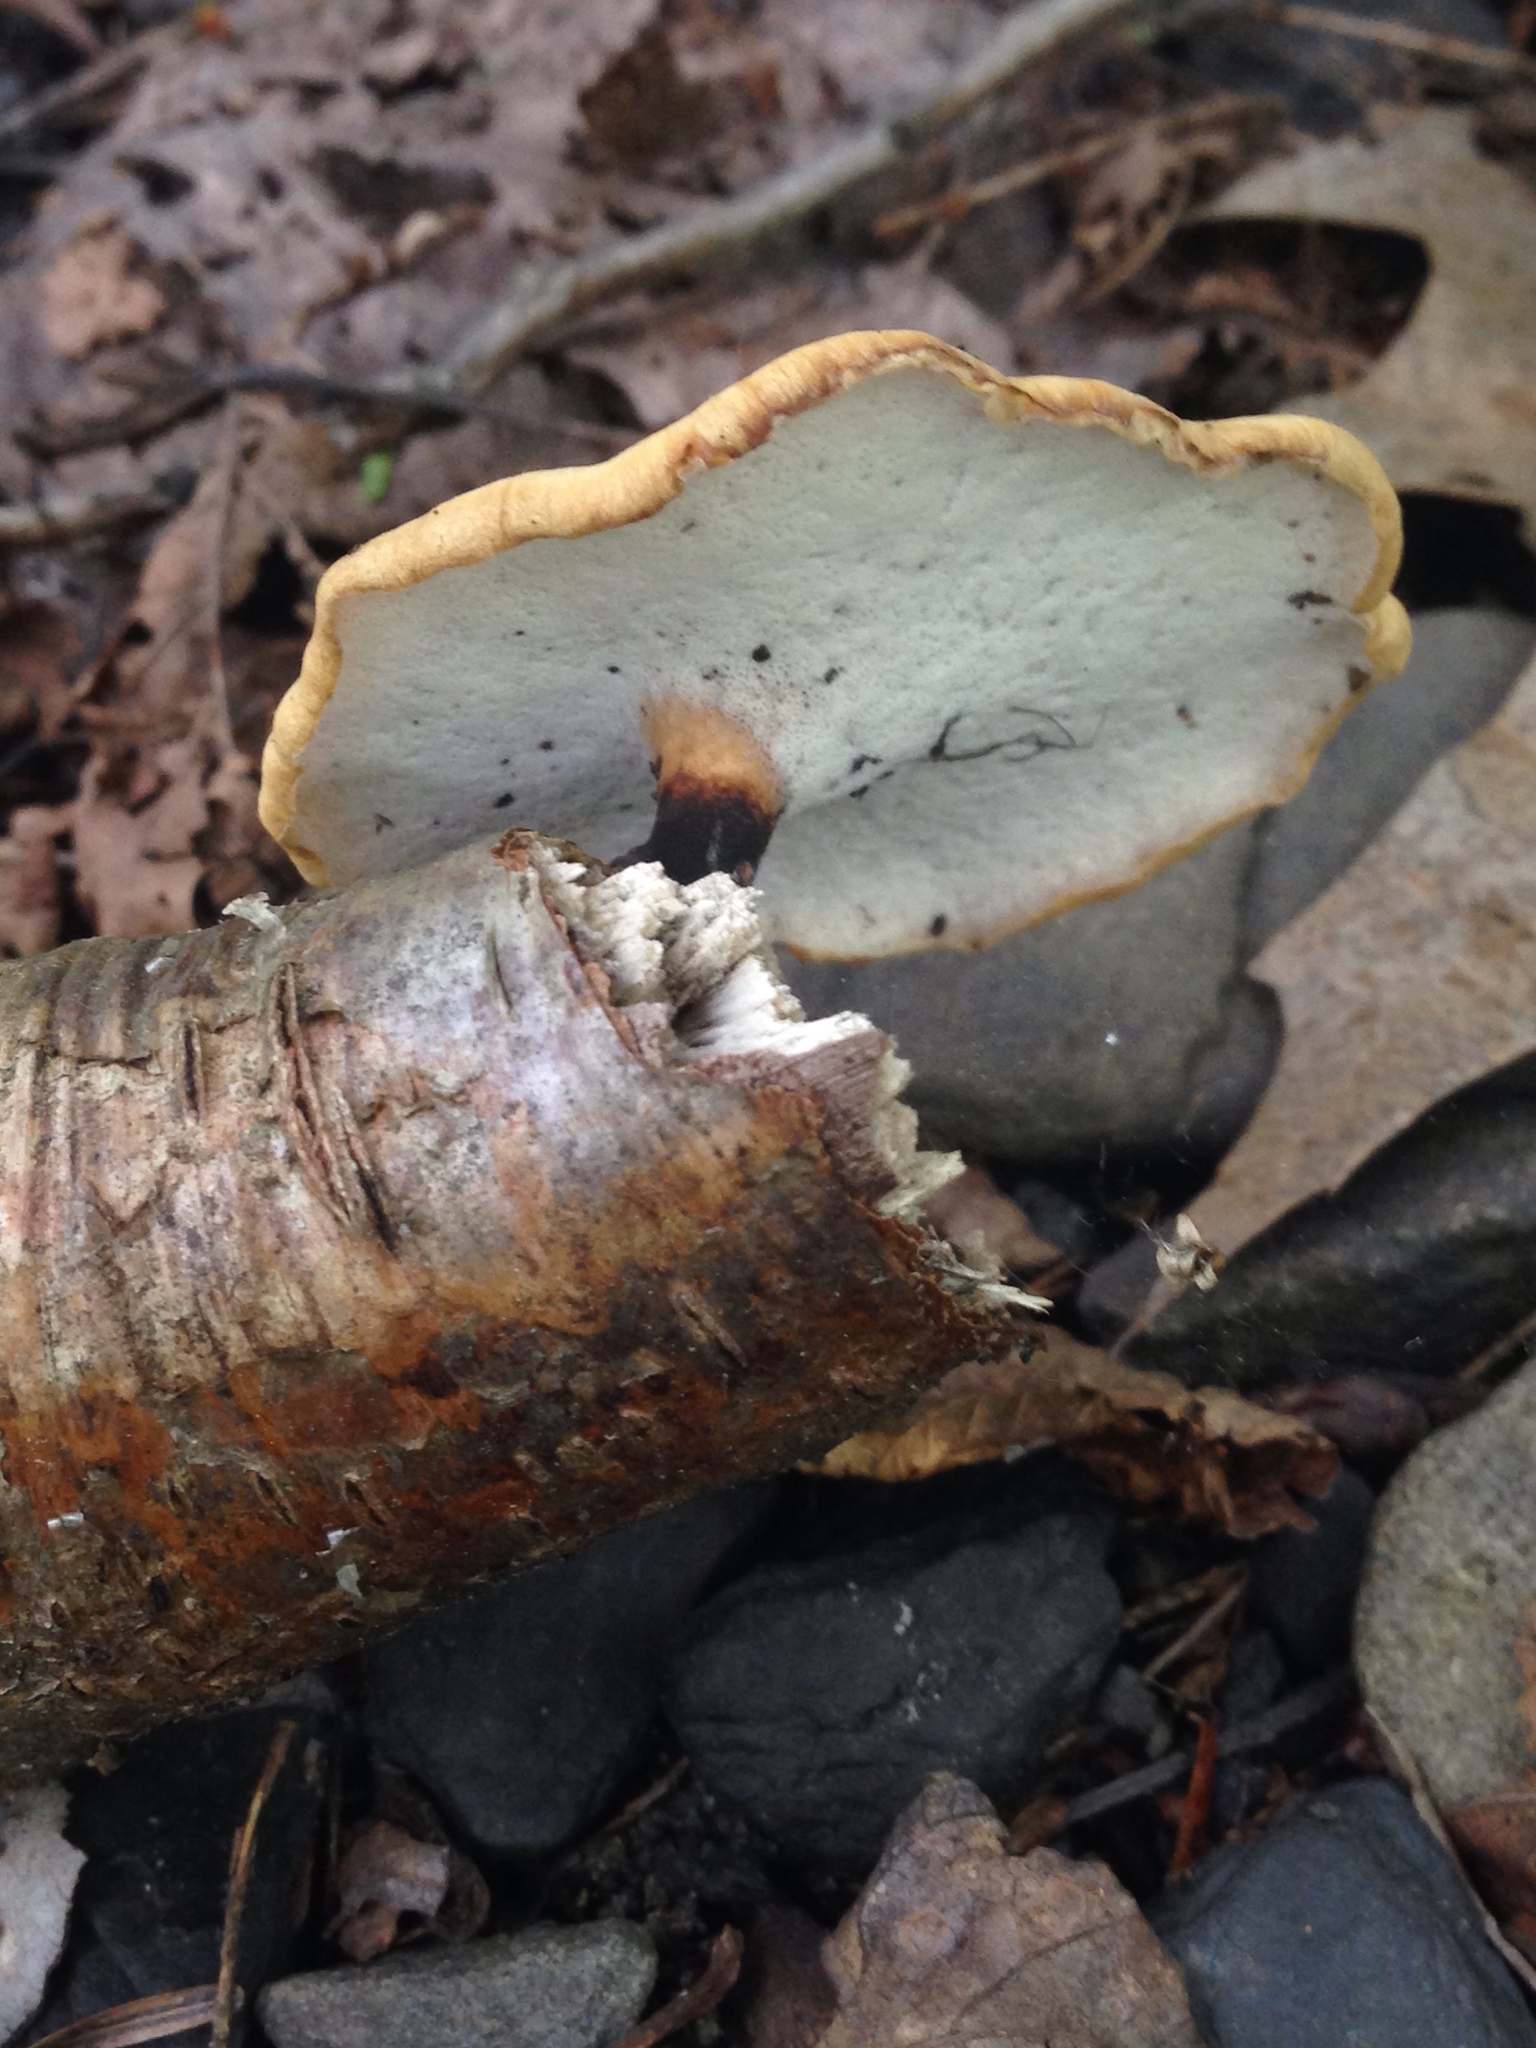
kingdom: Fungi
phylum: Basidiomycota
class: Agaricomycetes
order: Polyporales
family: Polyporaceae
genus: Cerioporus
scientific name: Cerioporus leptocephalus
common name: Blackfoot polypore
